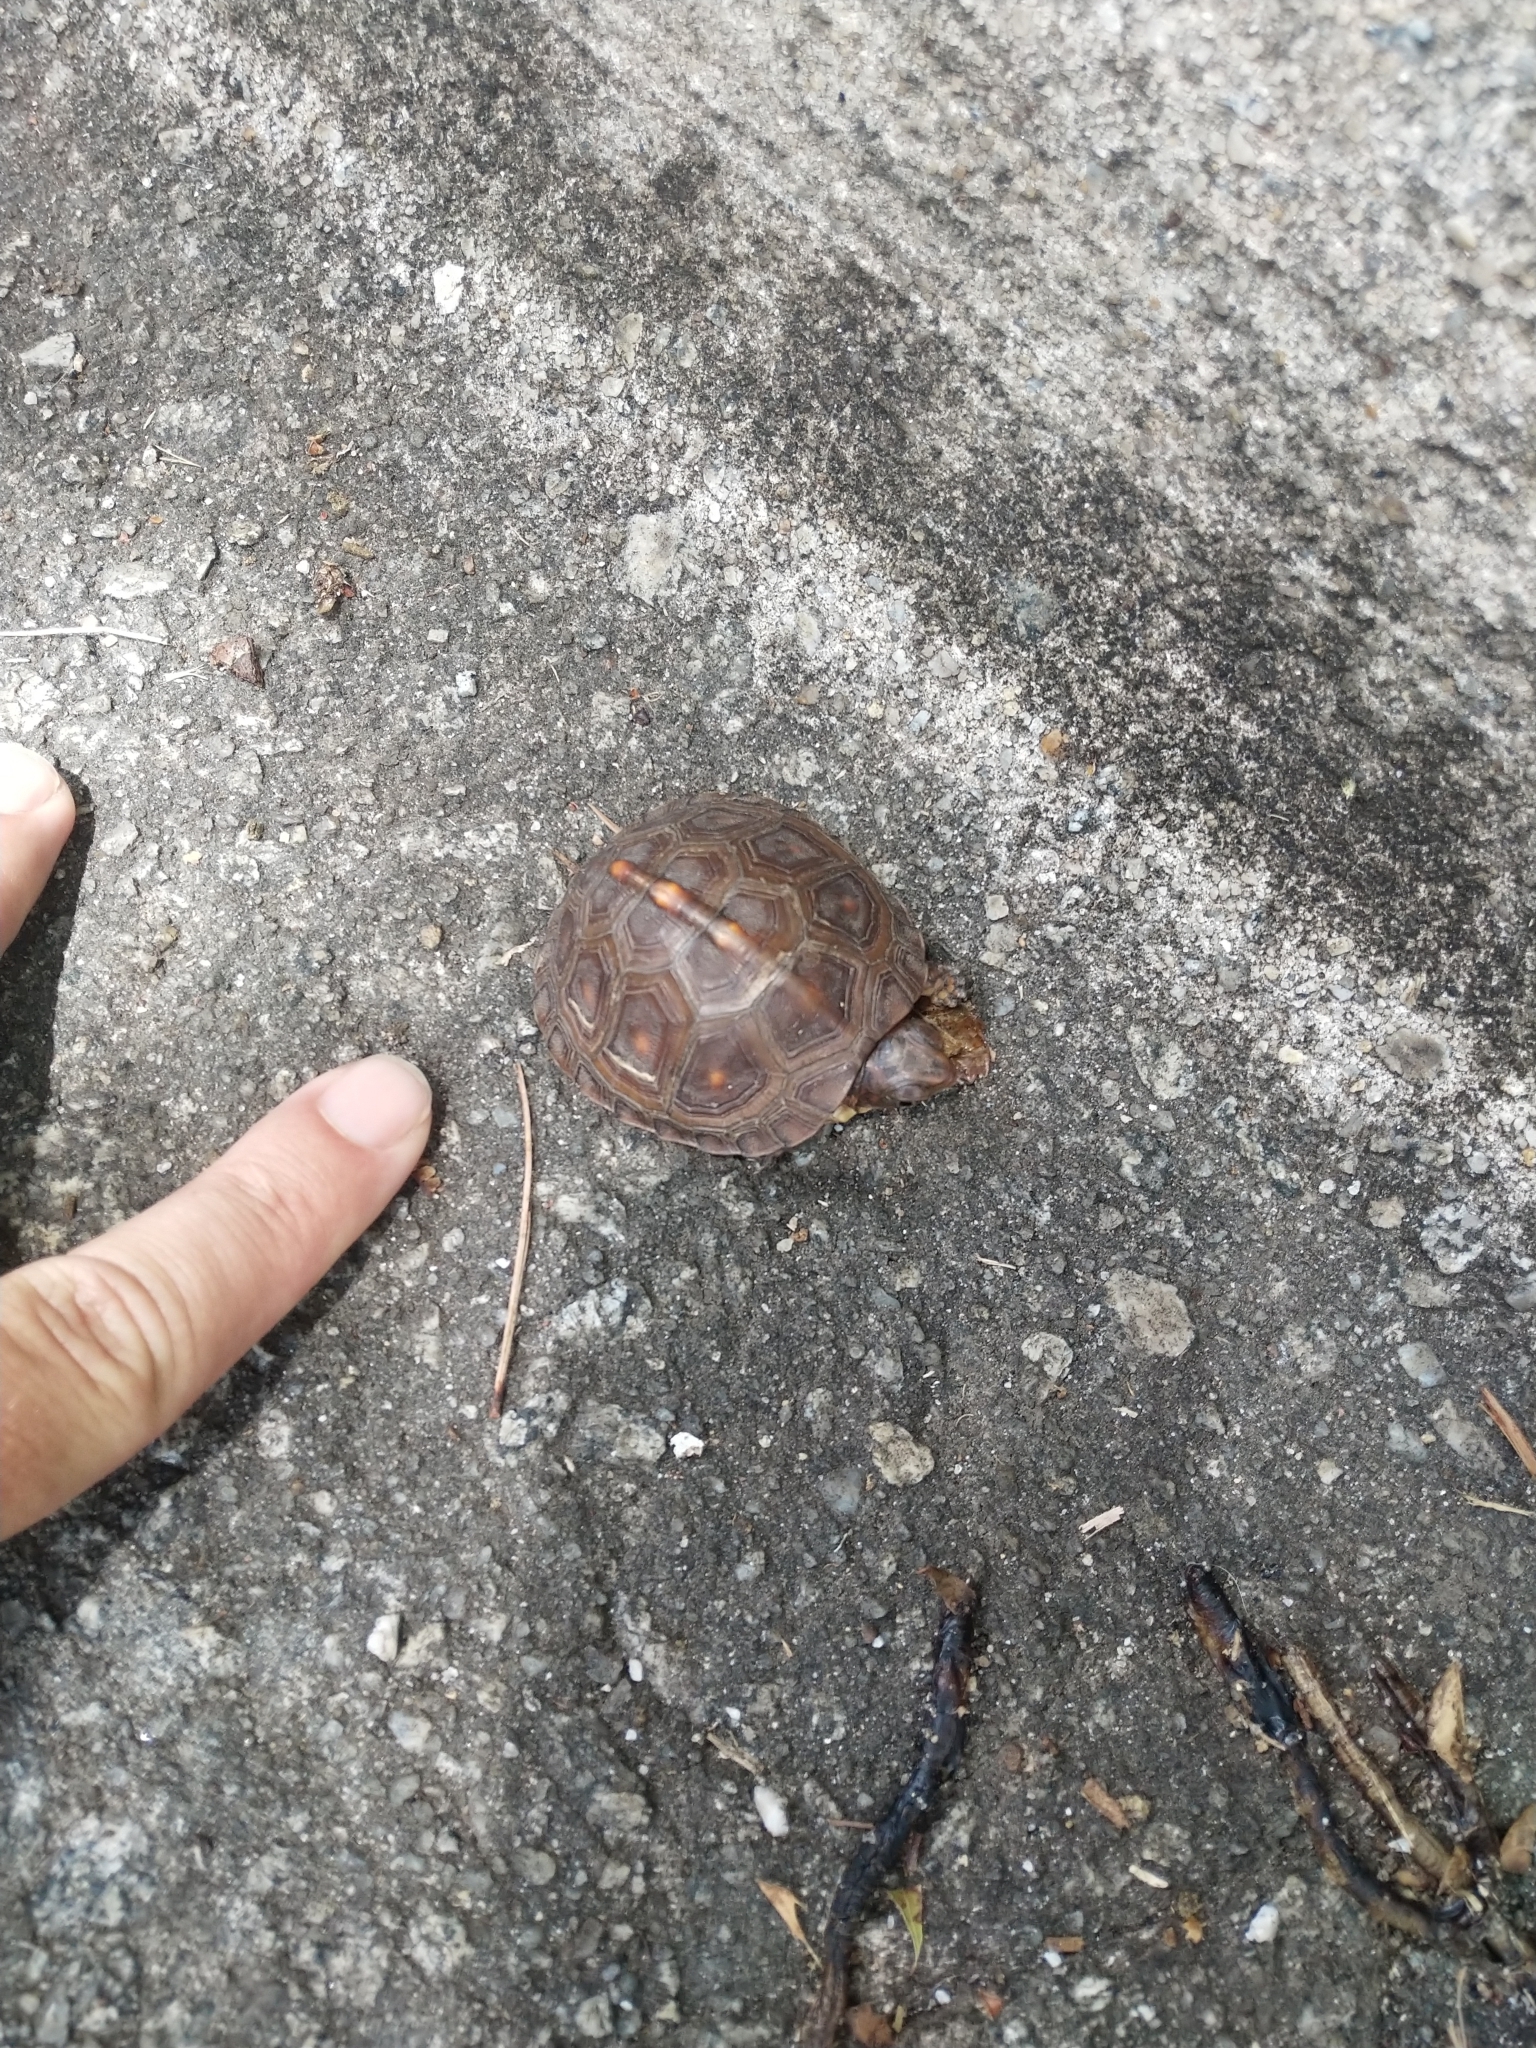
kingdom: Animalia
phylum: Chordata
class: Testudines
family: Emydidae
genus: Terrapene
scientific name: Terrapene carolina
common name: Common box turtle
